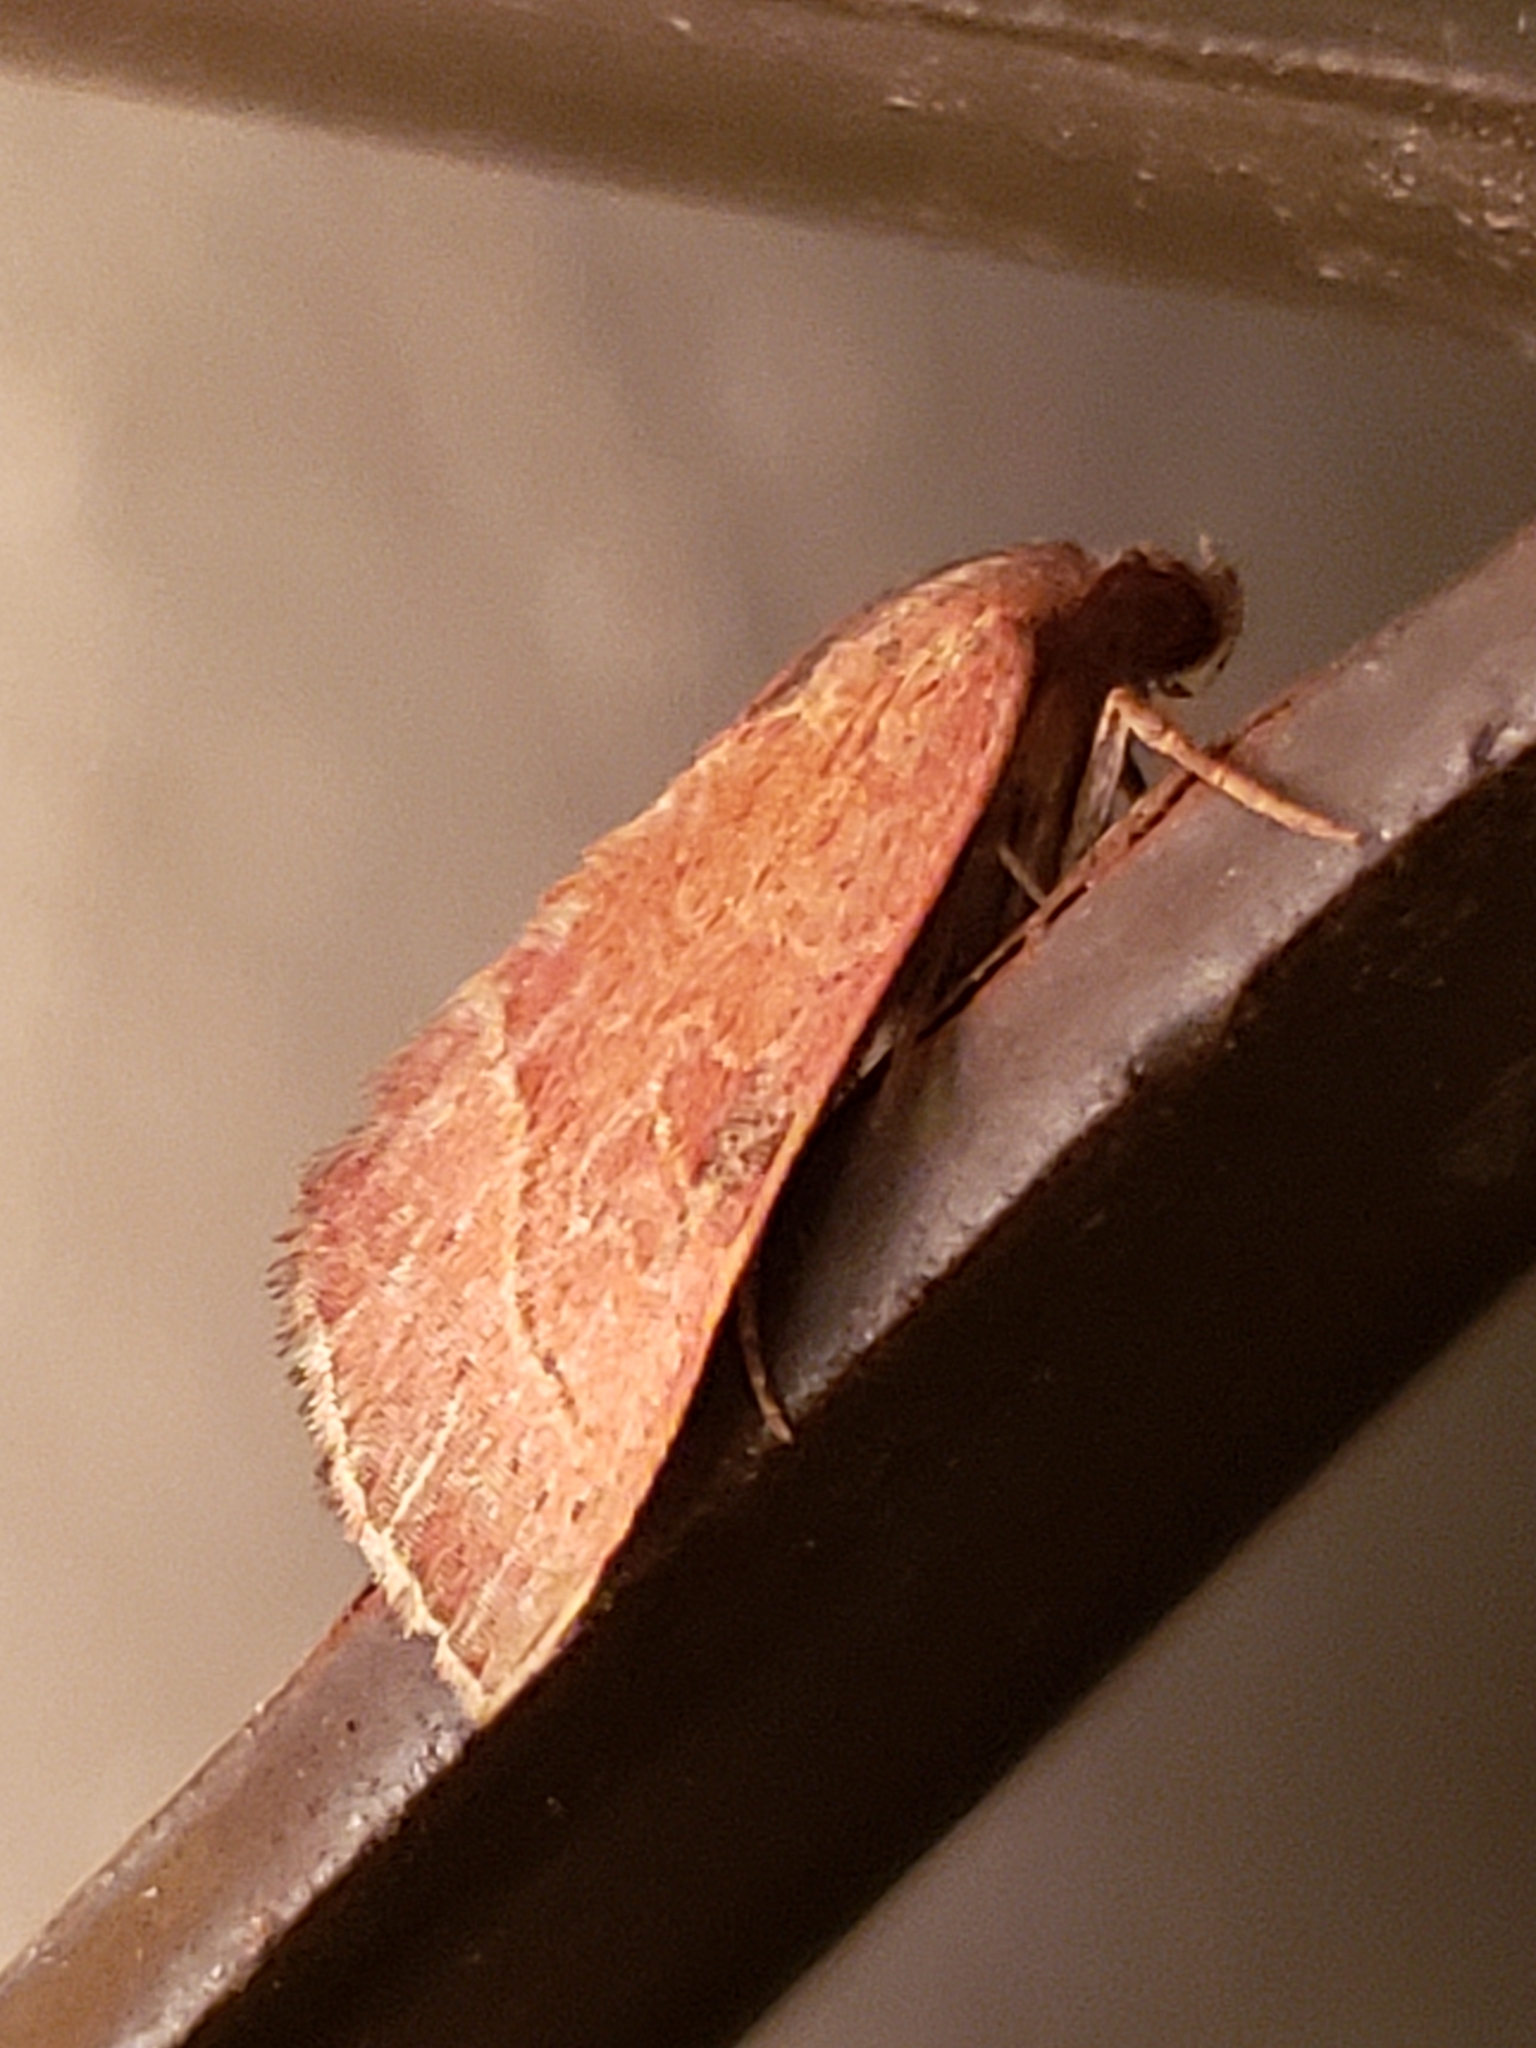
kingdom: Animalia
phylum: Arthropoda
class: Insecta
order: Lepidoptera
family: Noctuidae
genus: Galgula
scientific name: Galgula partita
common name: Wedgeling
